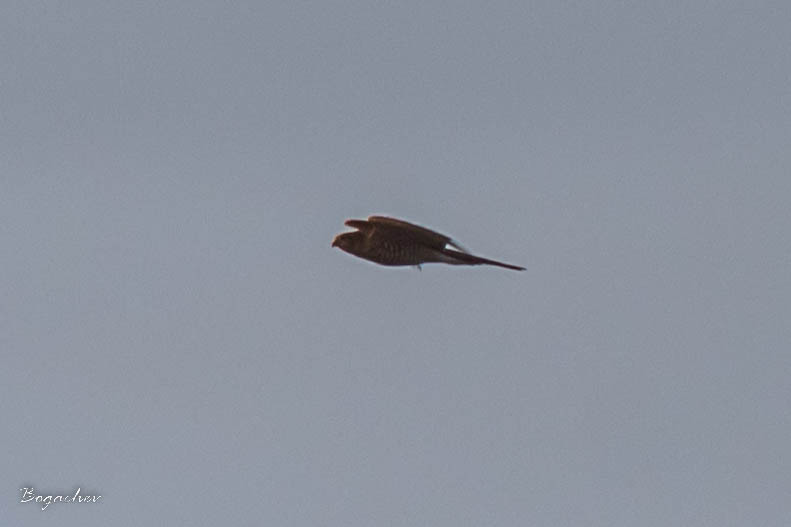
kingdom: Animalia
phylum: Chordata
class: Aves
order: Accipitriformes
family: Accipitridae
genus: Accipiter
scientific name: Accipiter nisus
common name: Eurasian sparrowhawk
